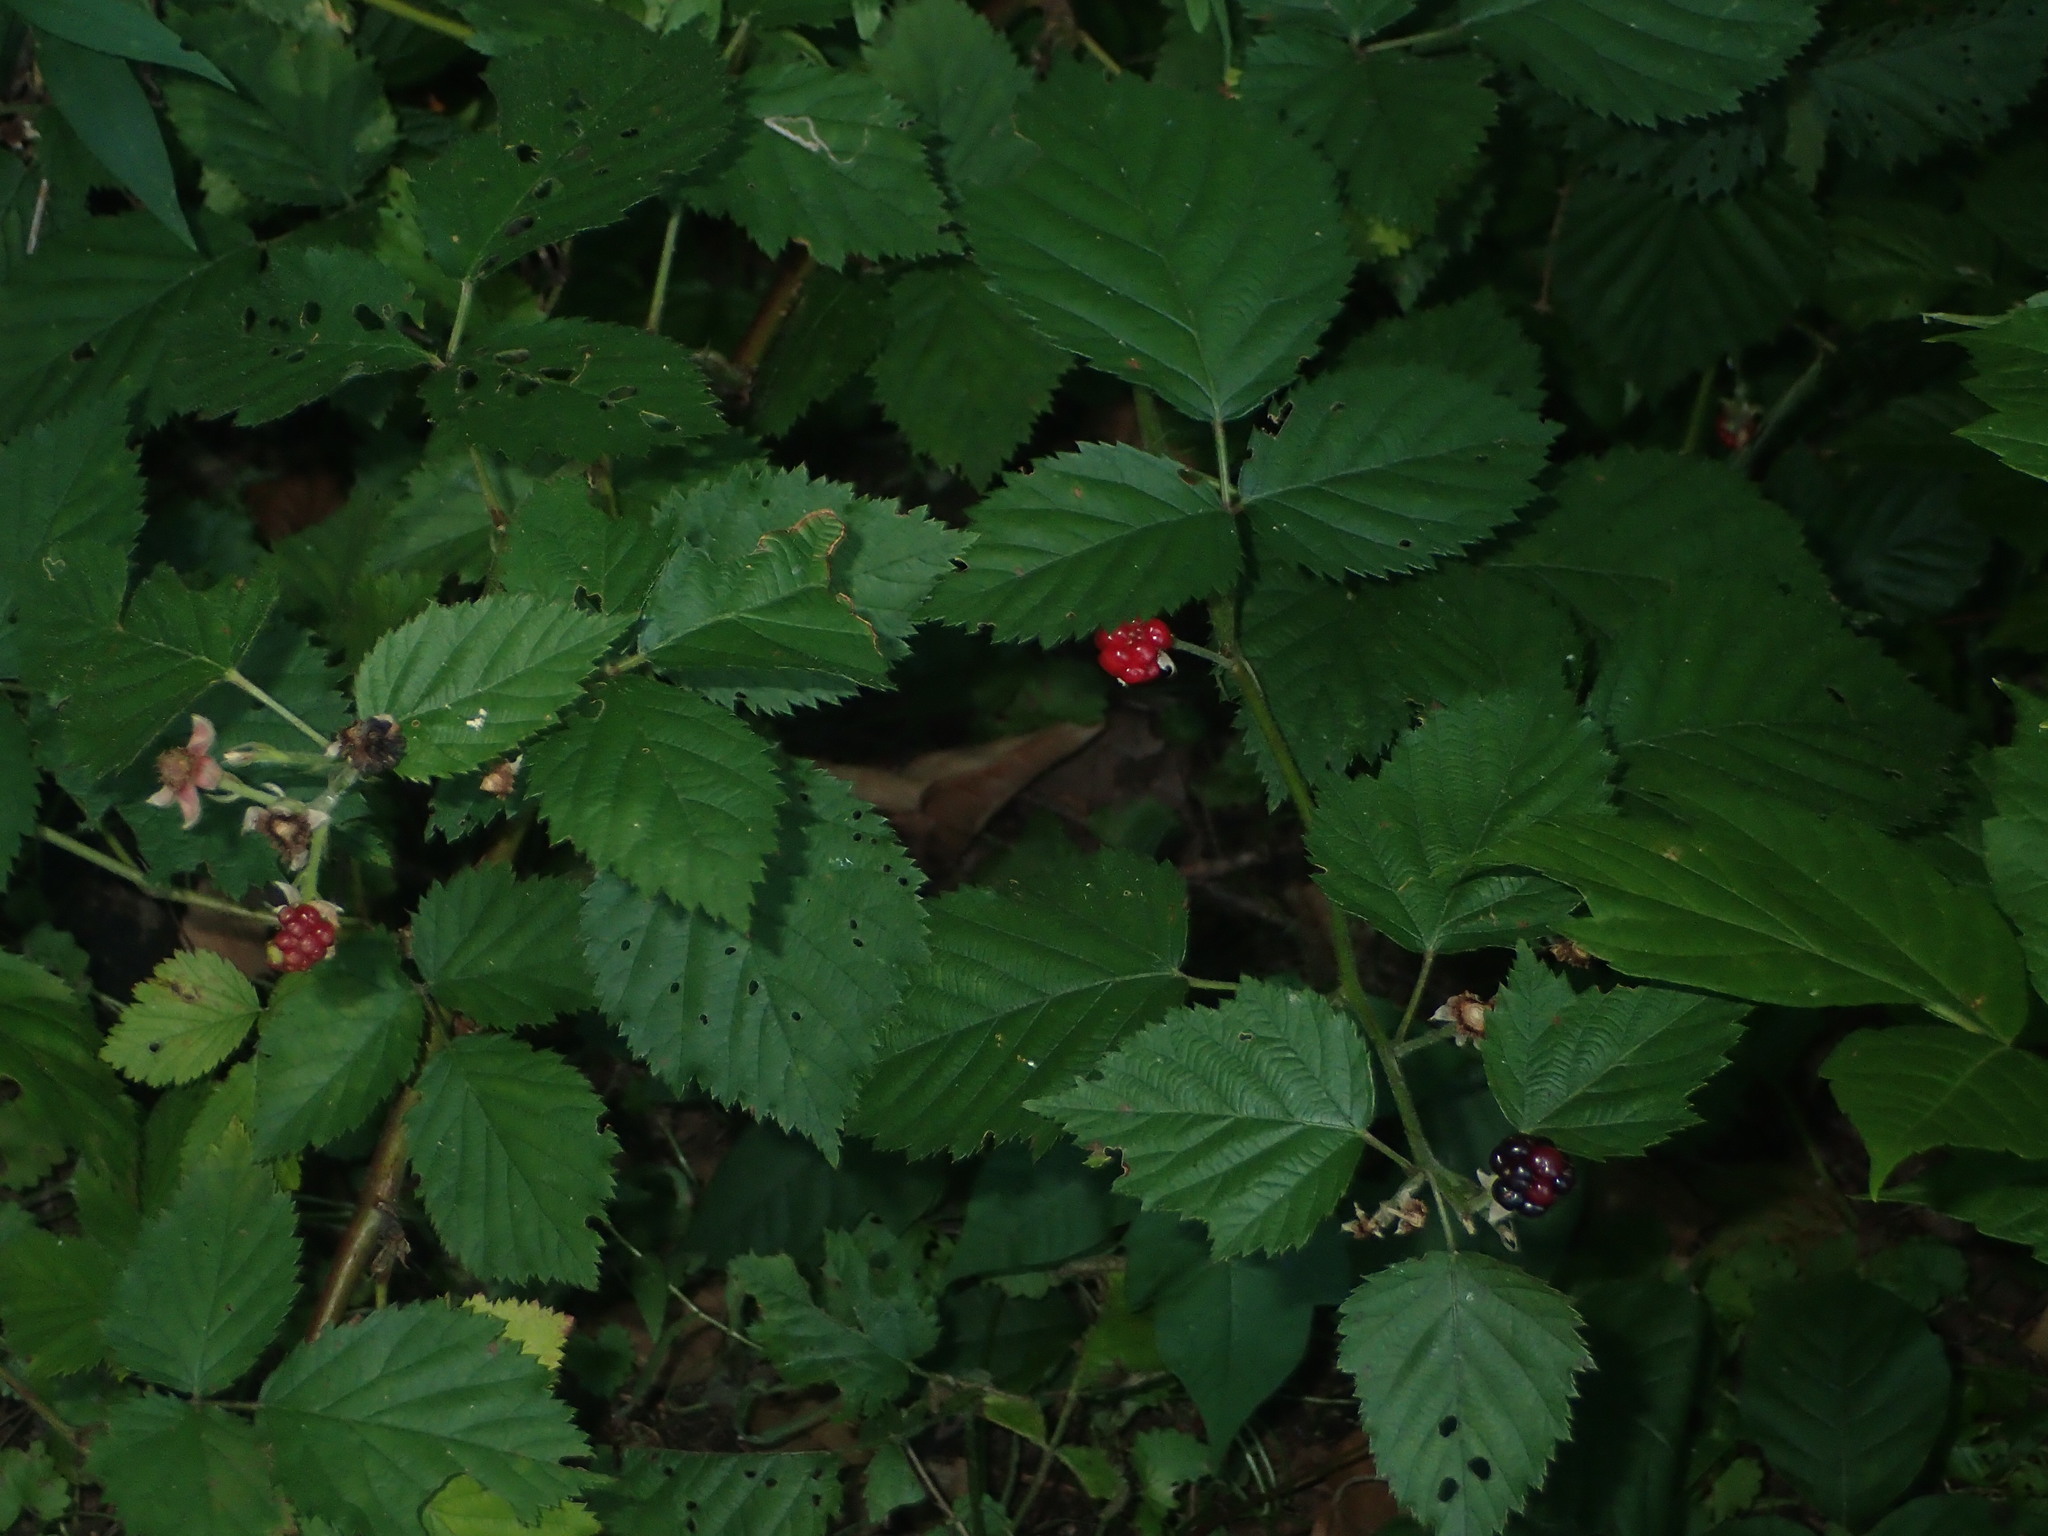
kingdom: Plantae
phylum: Tracheophyta
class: Magnoliopsida
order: Rosales
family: Rosaceae
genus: Rubus
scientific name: Rubus allegheniensis
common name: Allegheny blackberry
